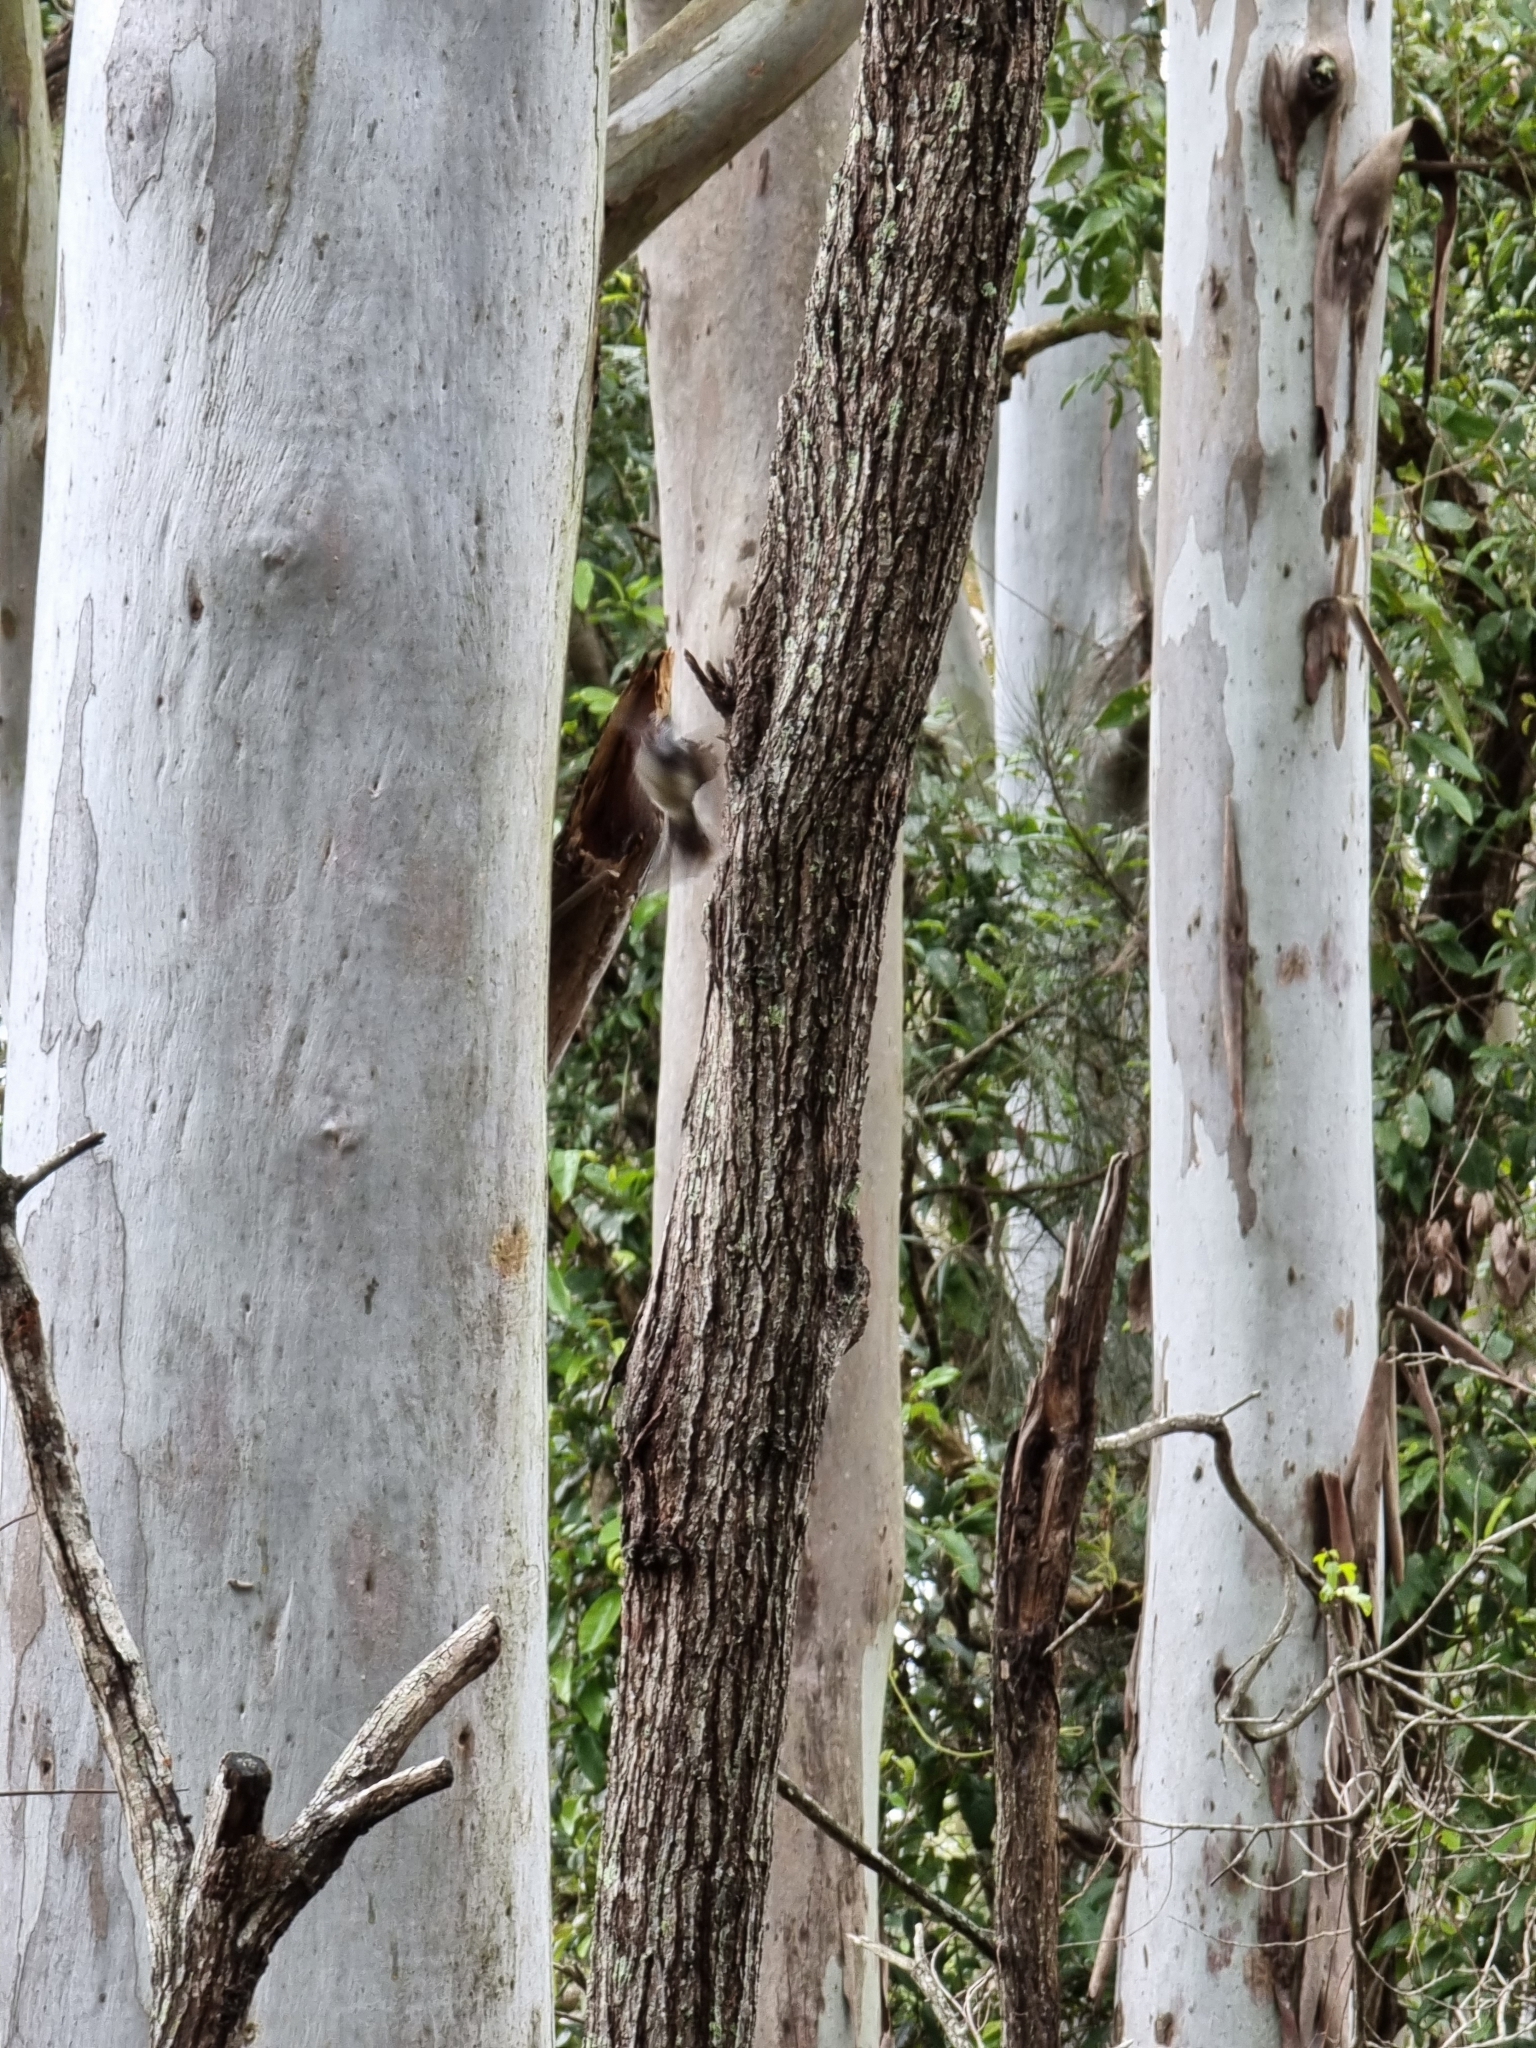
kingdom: Animalia
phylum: Chordata
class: Aves
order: Passeriformes
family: Rhipiduridae
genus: Rhipidura
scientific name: Rhipidura albiscapa
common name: Grey fantail
